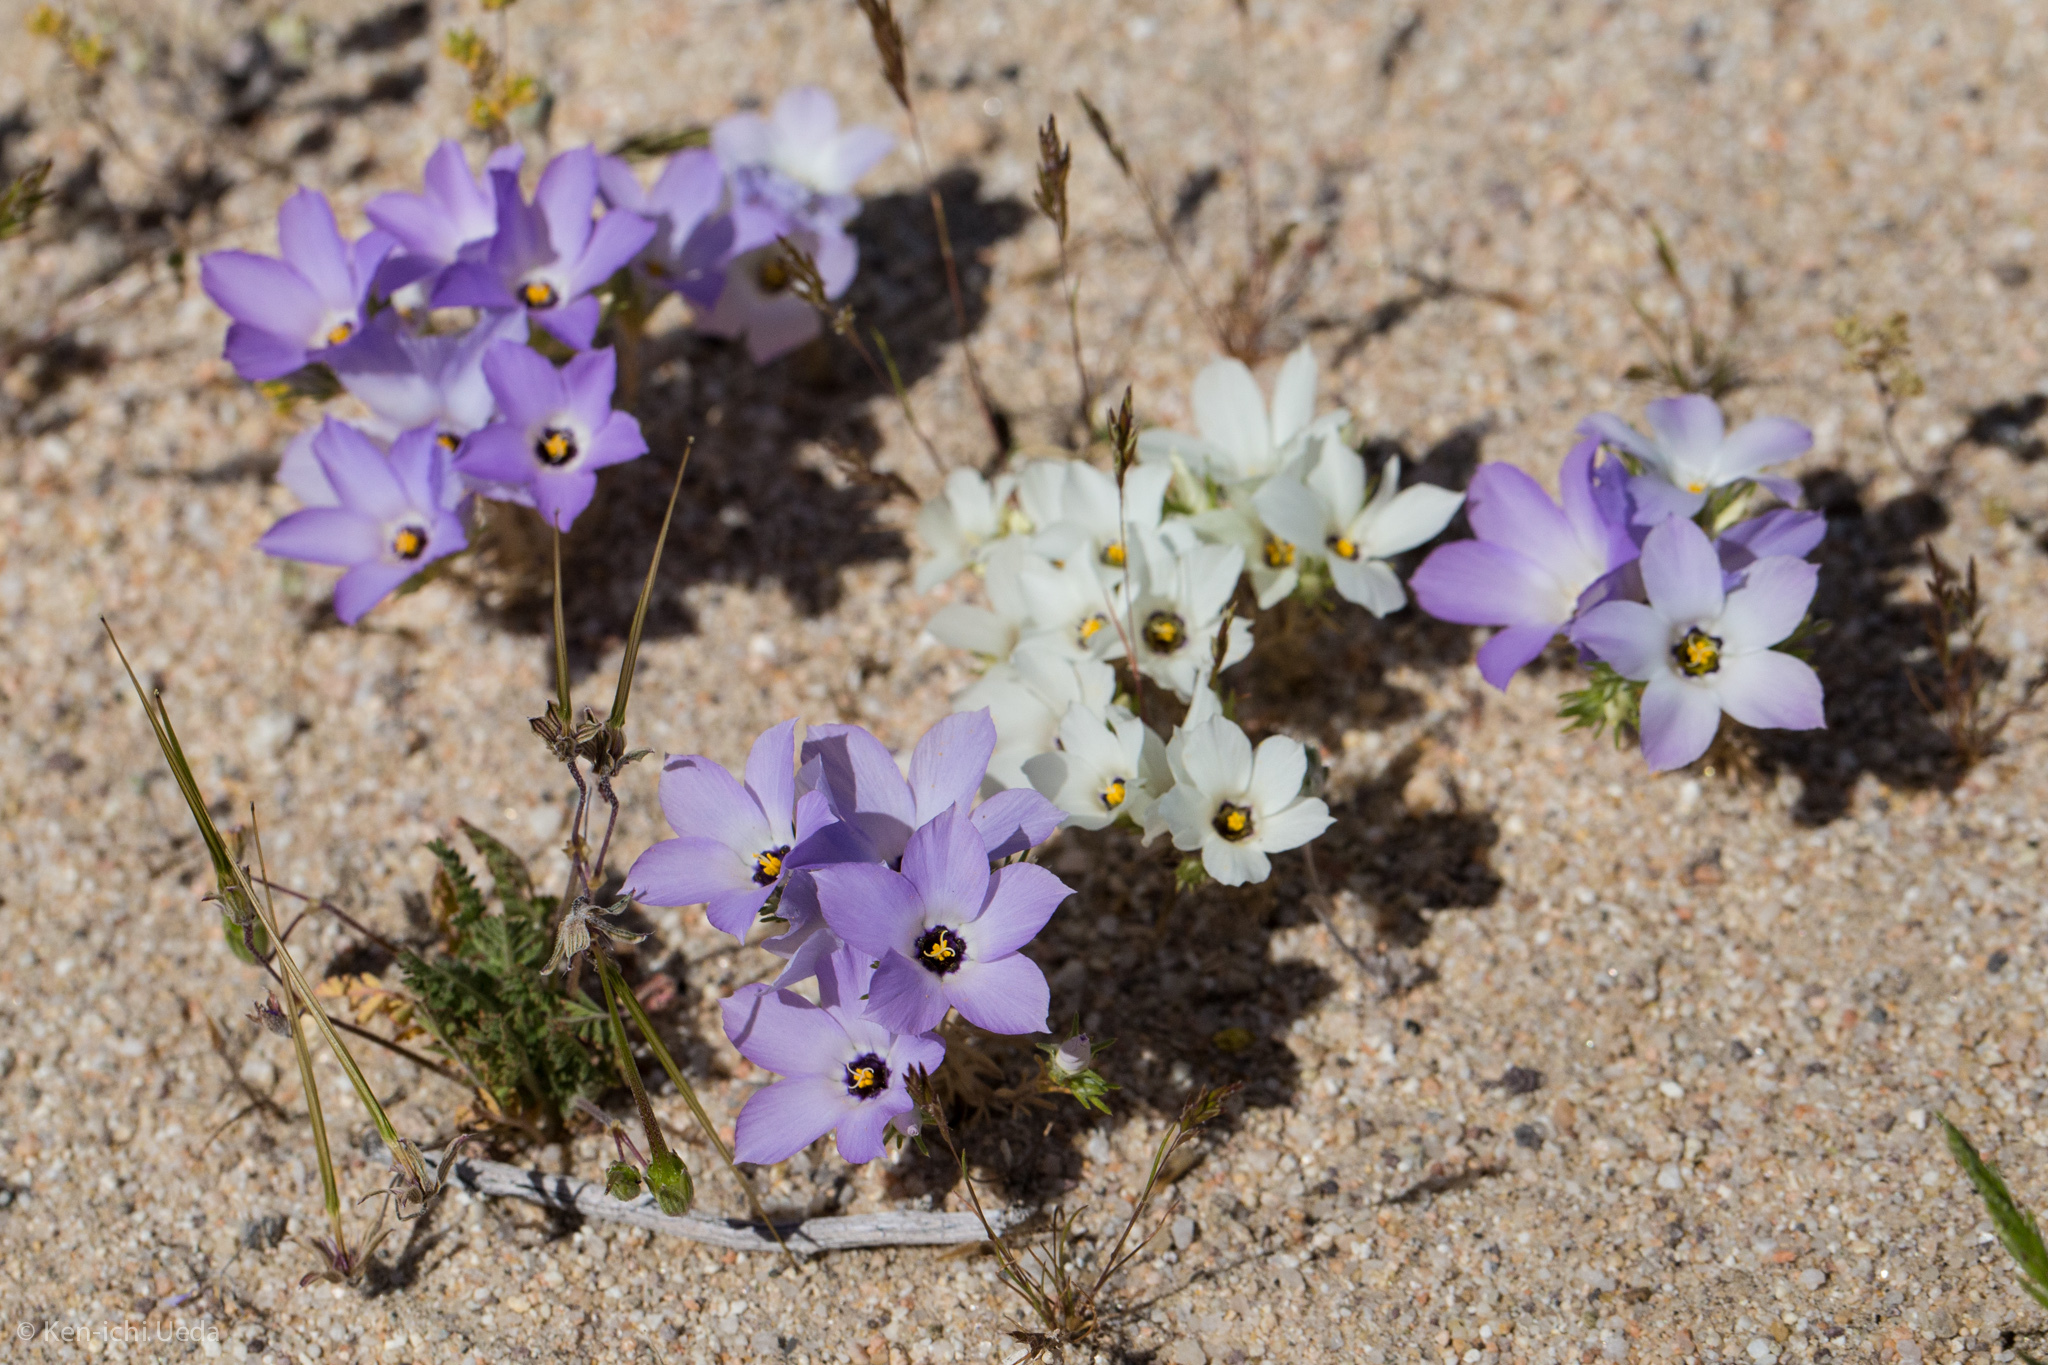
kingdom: Plantae
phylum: Tracheophyta
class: Magnoliopsida
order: Ericales
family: Polemoniaceae
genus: Linanthus
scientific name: Linanthus parryae
